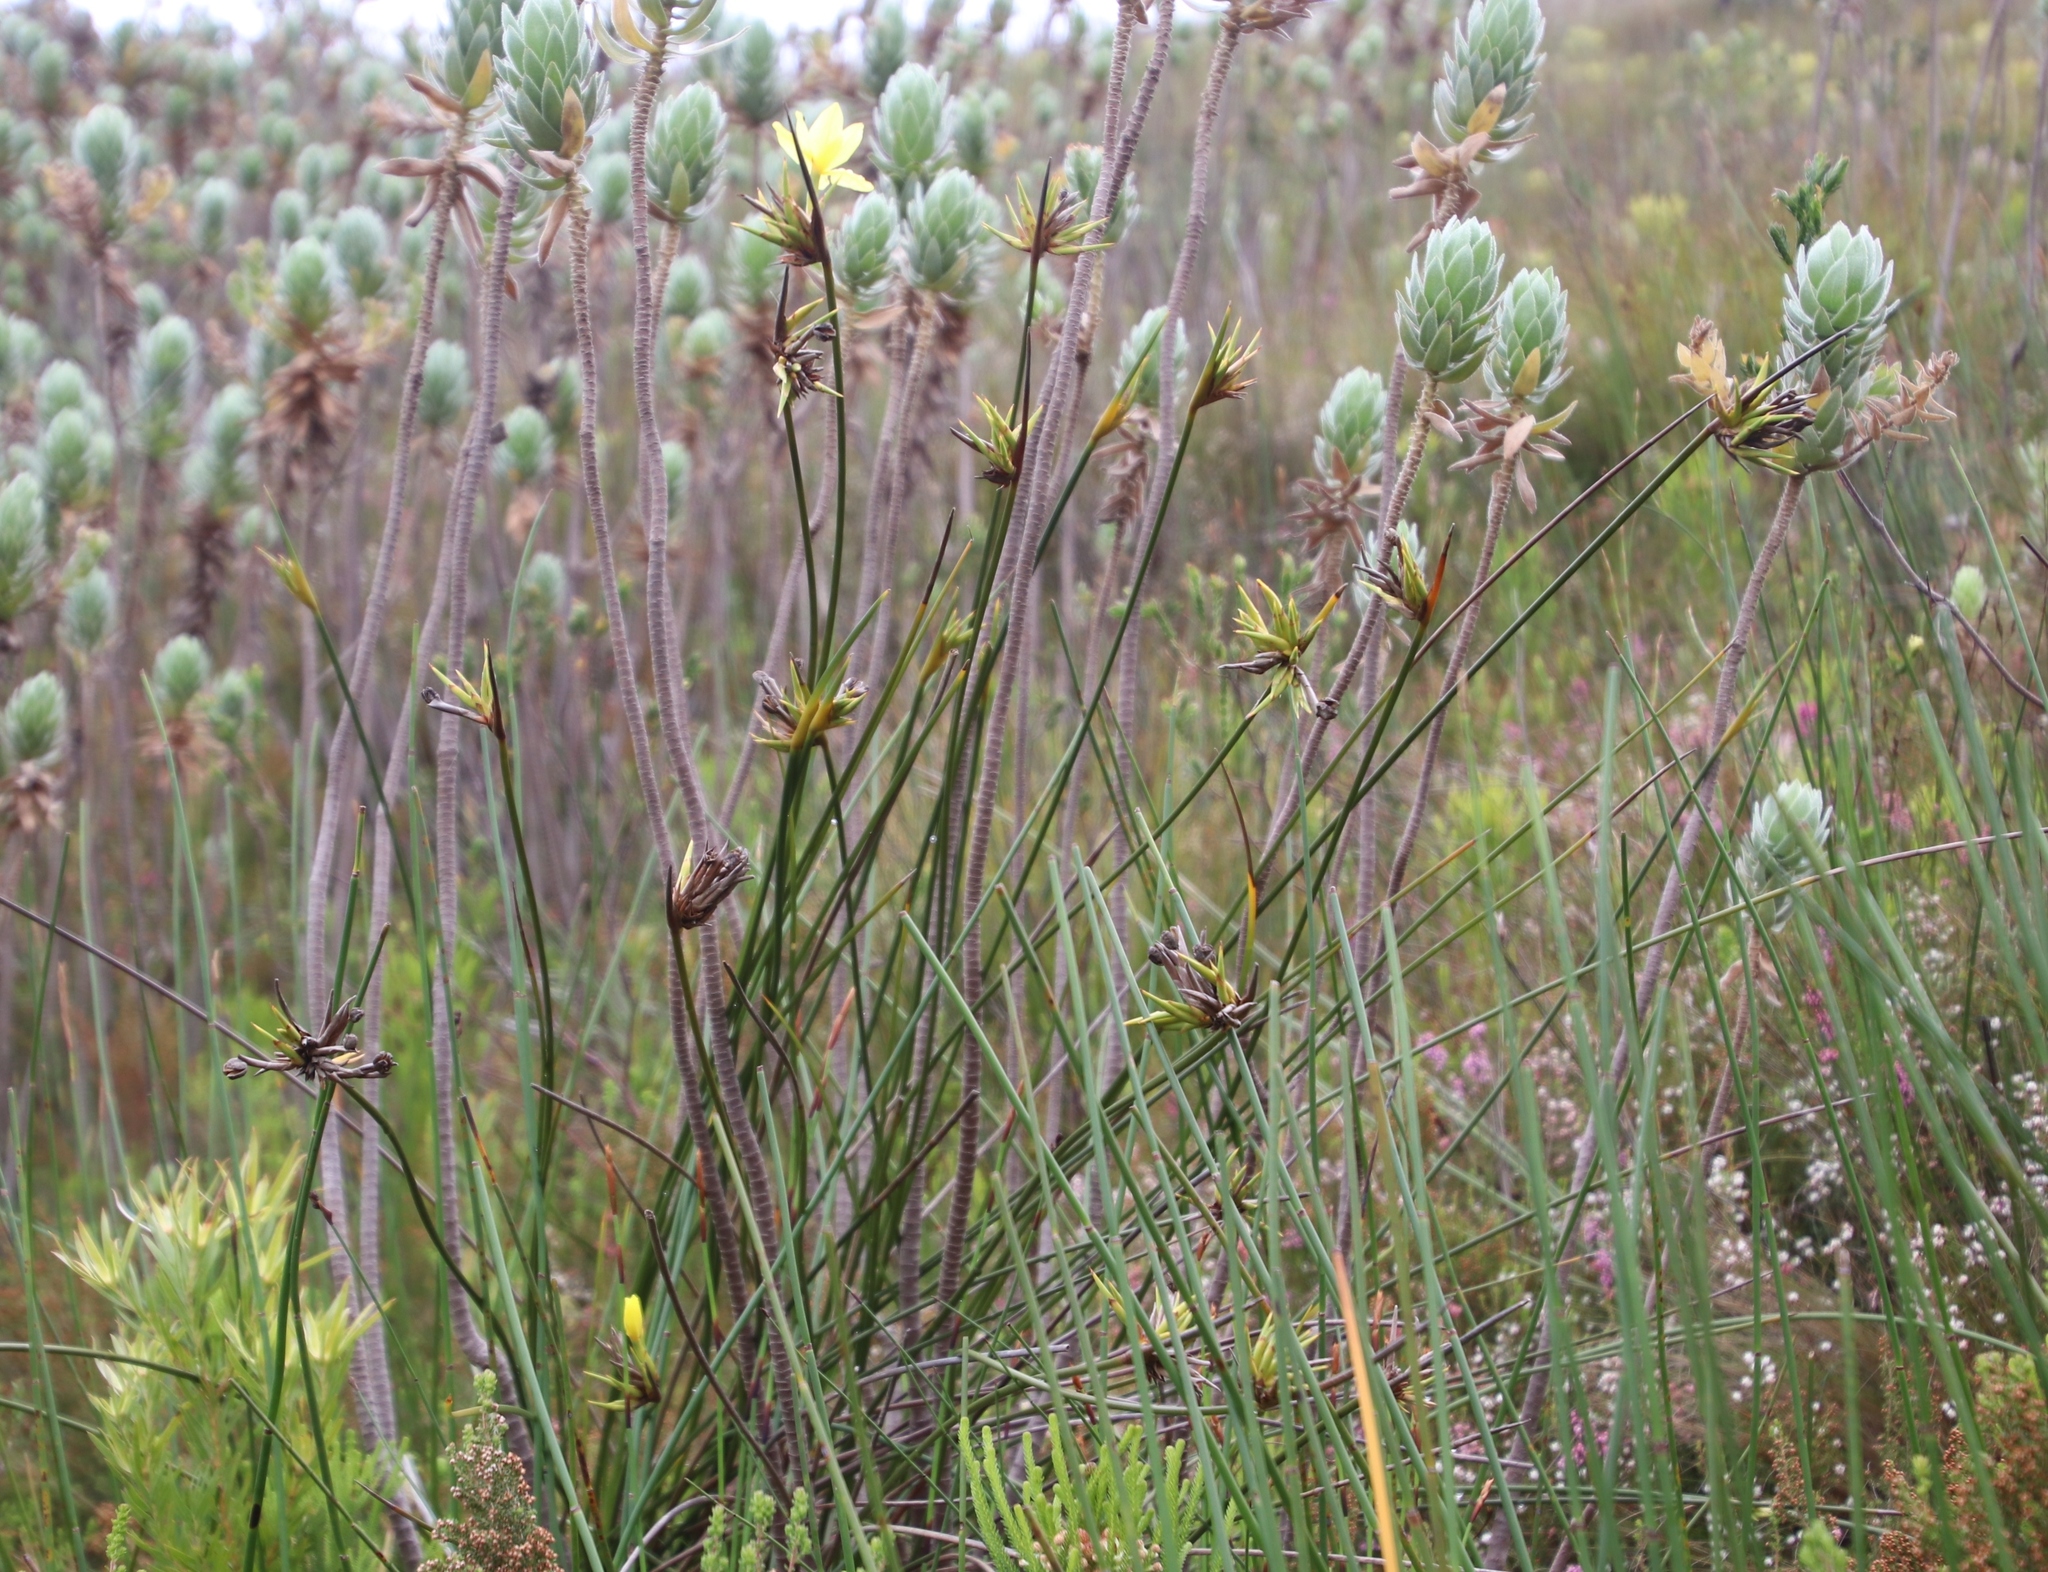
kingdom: Plantae
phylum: Tracheophyta
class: Liliopsida
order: Asparagales
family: Iridaceae
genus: Bobartia
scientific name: Bobartia indica
